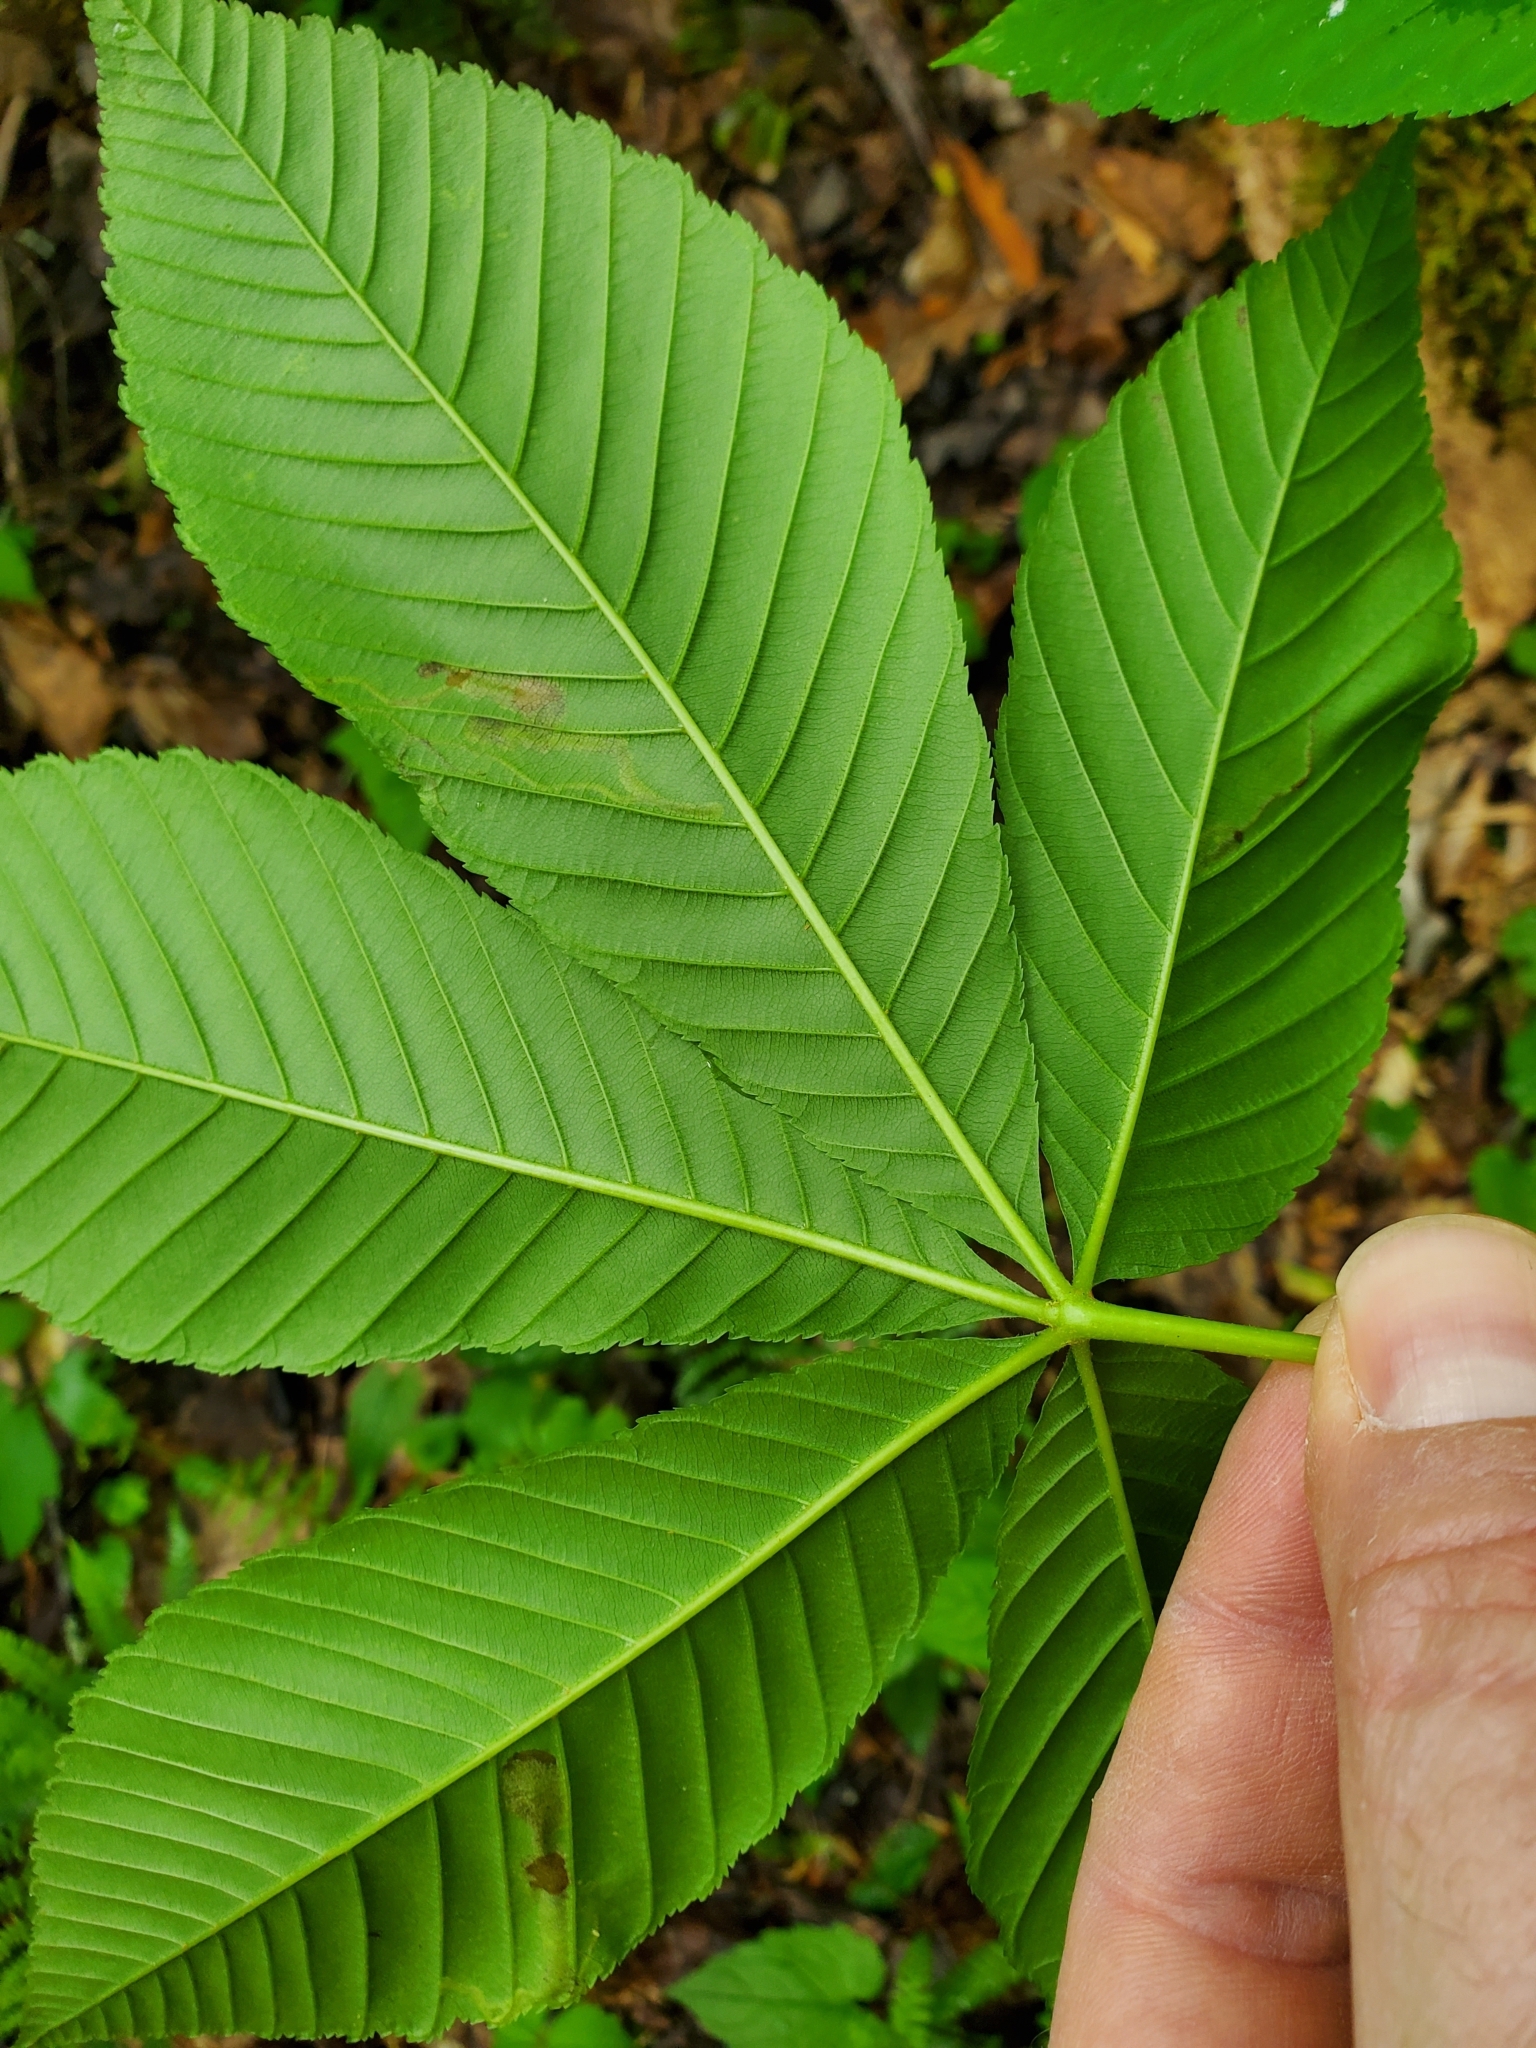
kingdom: Animalia
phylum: Arthropoda
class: Insecta
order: Diptera
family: Agromyzidae
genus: Phytomyza
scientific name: Phytomyza aesculi
